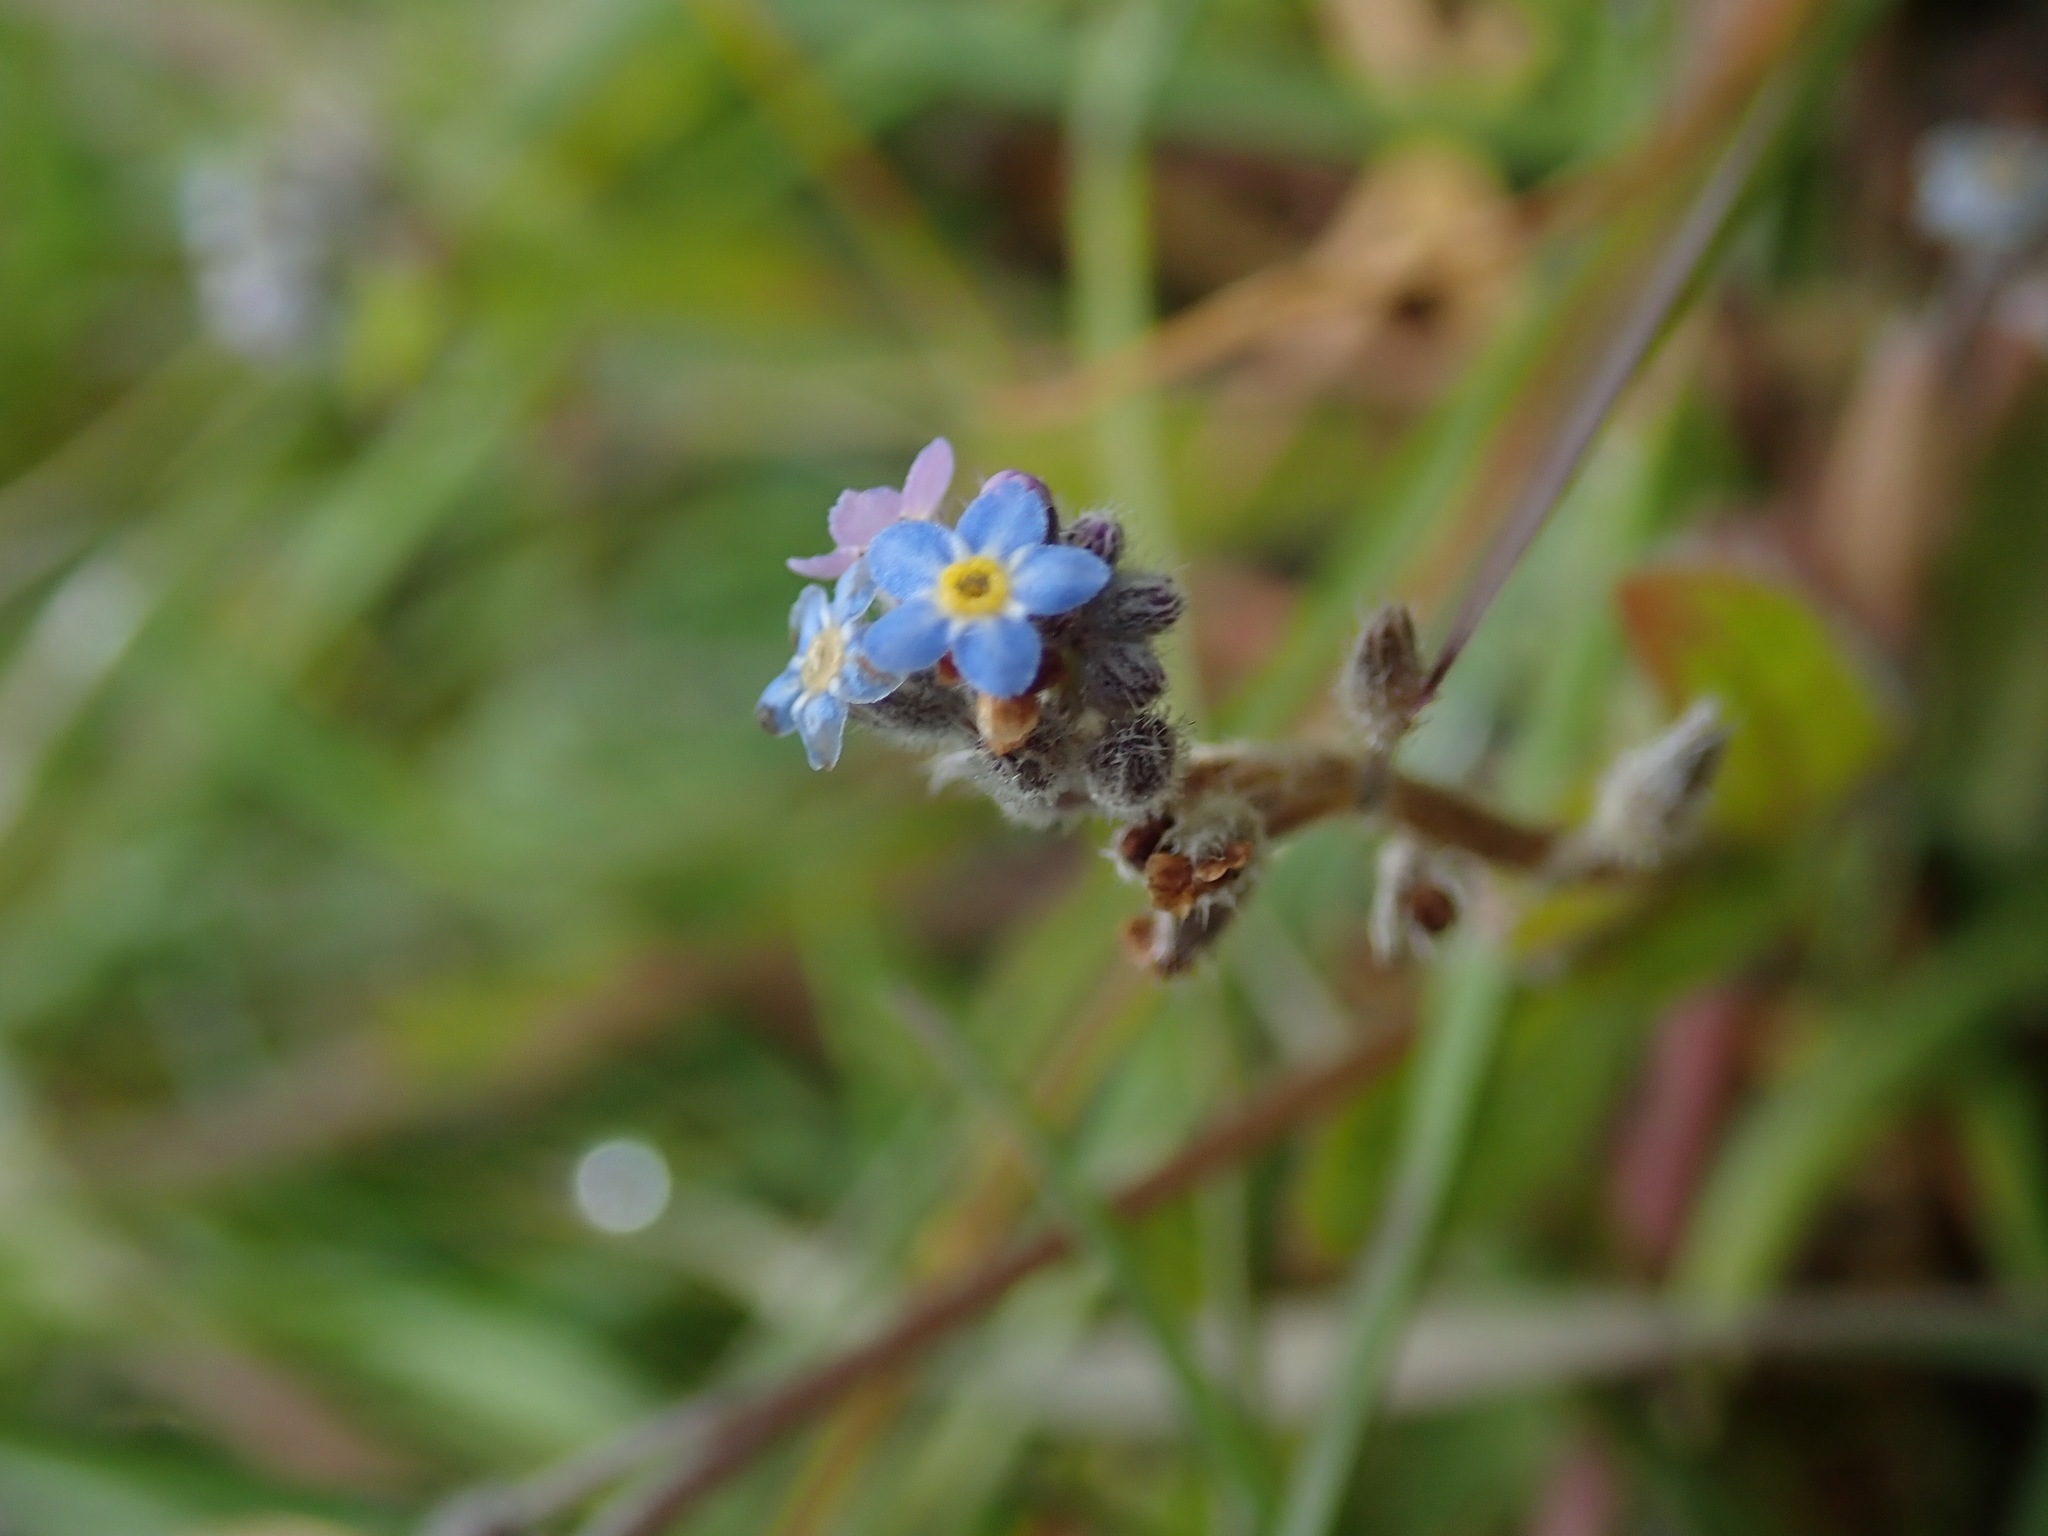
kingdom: Plantae
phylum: Tracheophyta
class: Magnoliopsida
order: Boraginales
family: Boraginaceae
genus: Myosotis
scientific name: Myosotis arvensis
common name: Field forget-me-not
